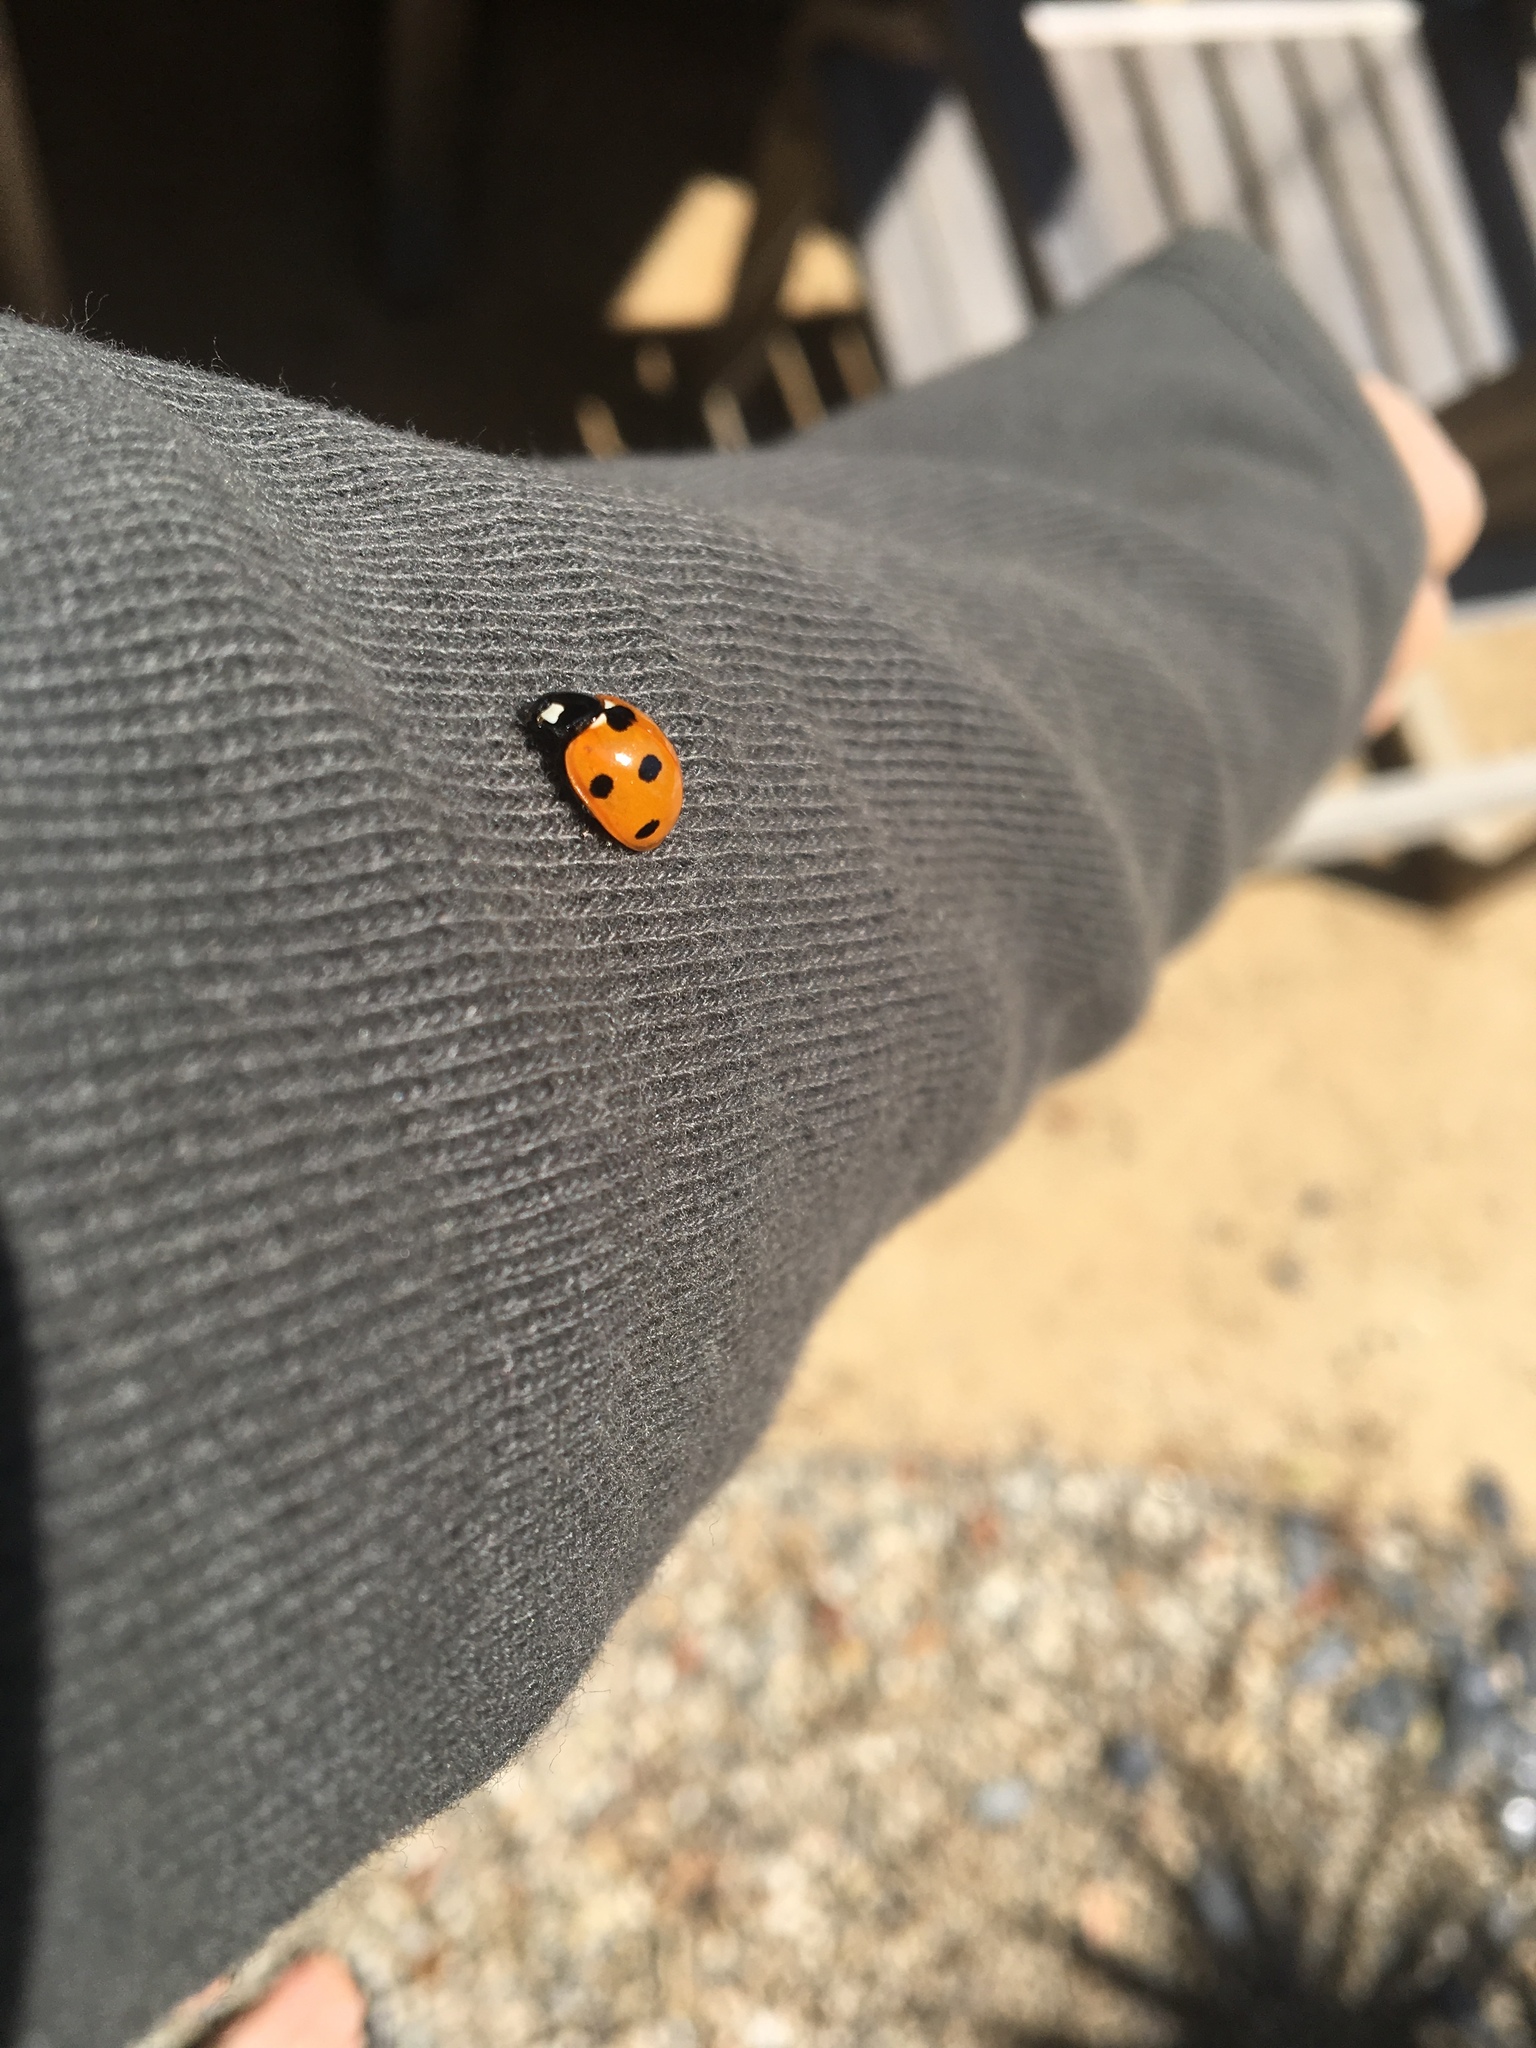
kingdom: Animalia
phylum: Arthropoda
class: Insecta
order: Coleoptera
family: Coccinellidae
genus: Coccinella
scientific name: Coccinella septempunctata
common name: Sevenspotted lady beetle
